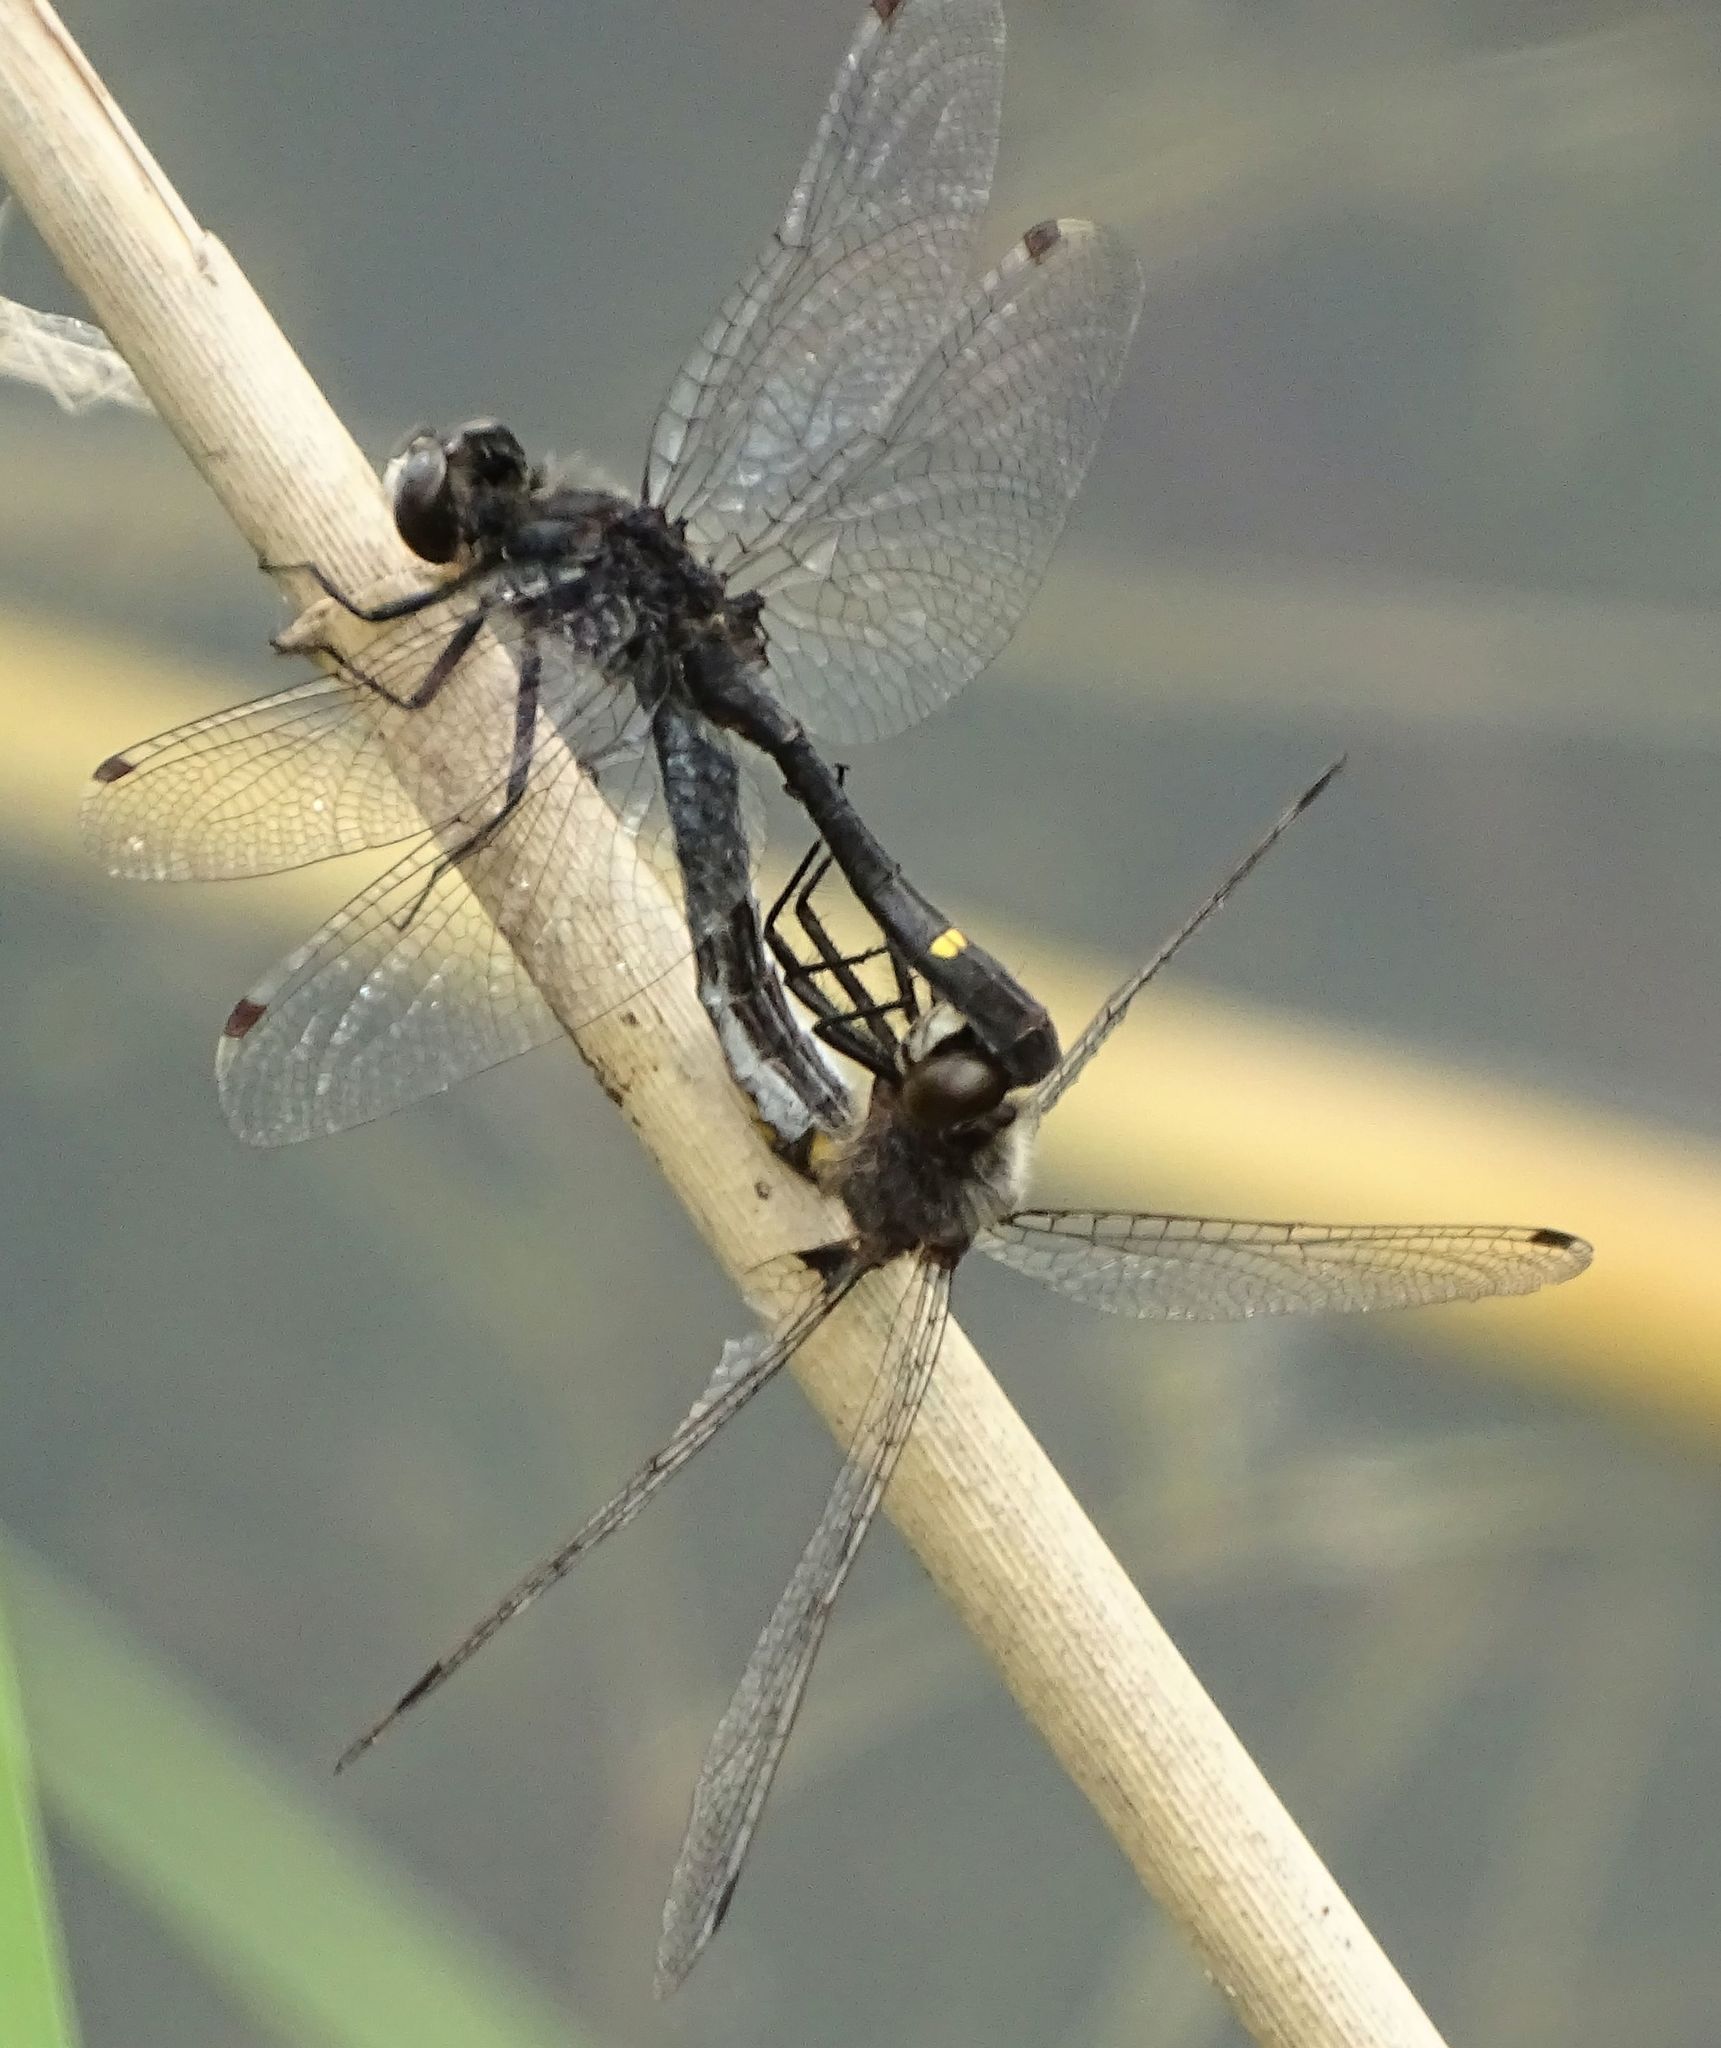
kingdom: Animalia
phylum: Arthropoda
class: Insecta
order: Odonata
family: Libellulidae
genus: Leucorrhinia
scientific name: Leucorrhinia intacta
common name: Dot-tailed whiteface
